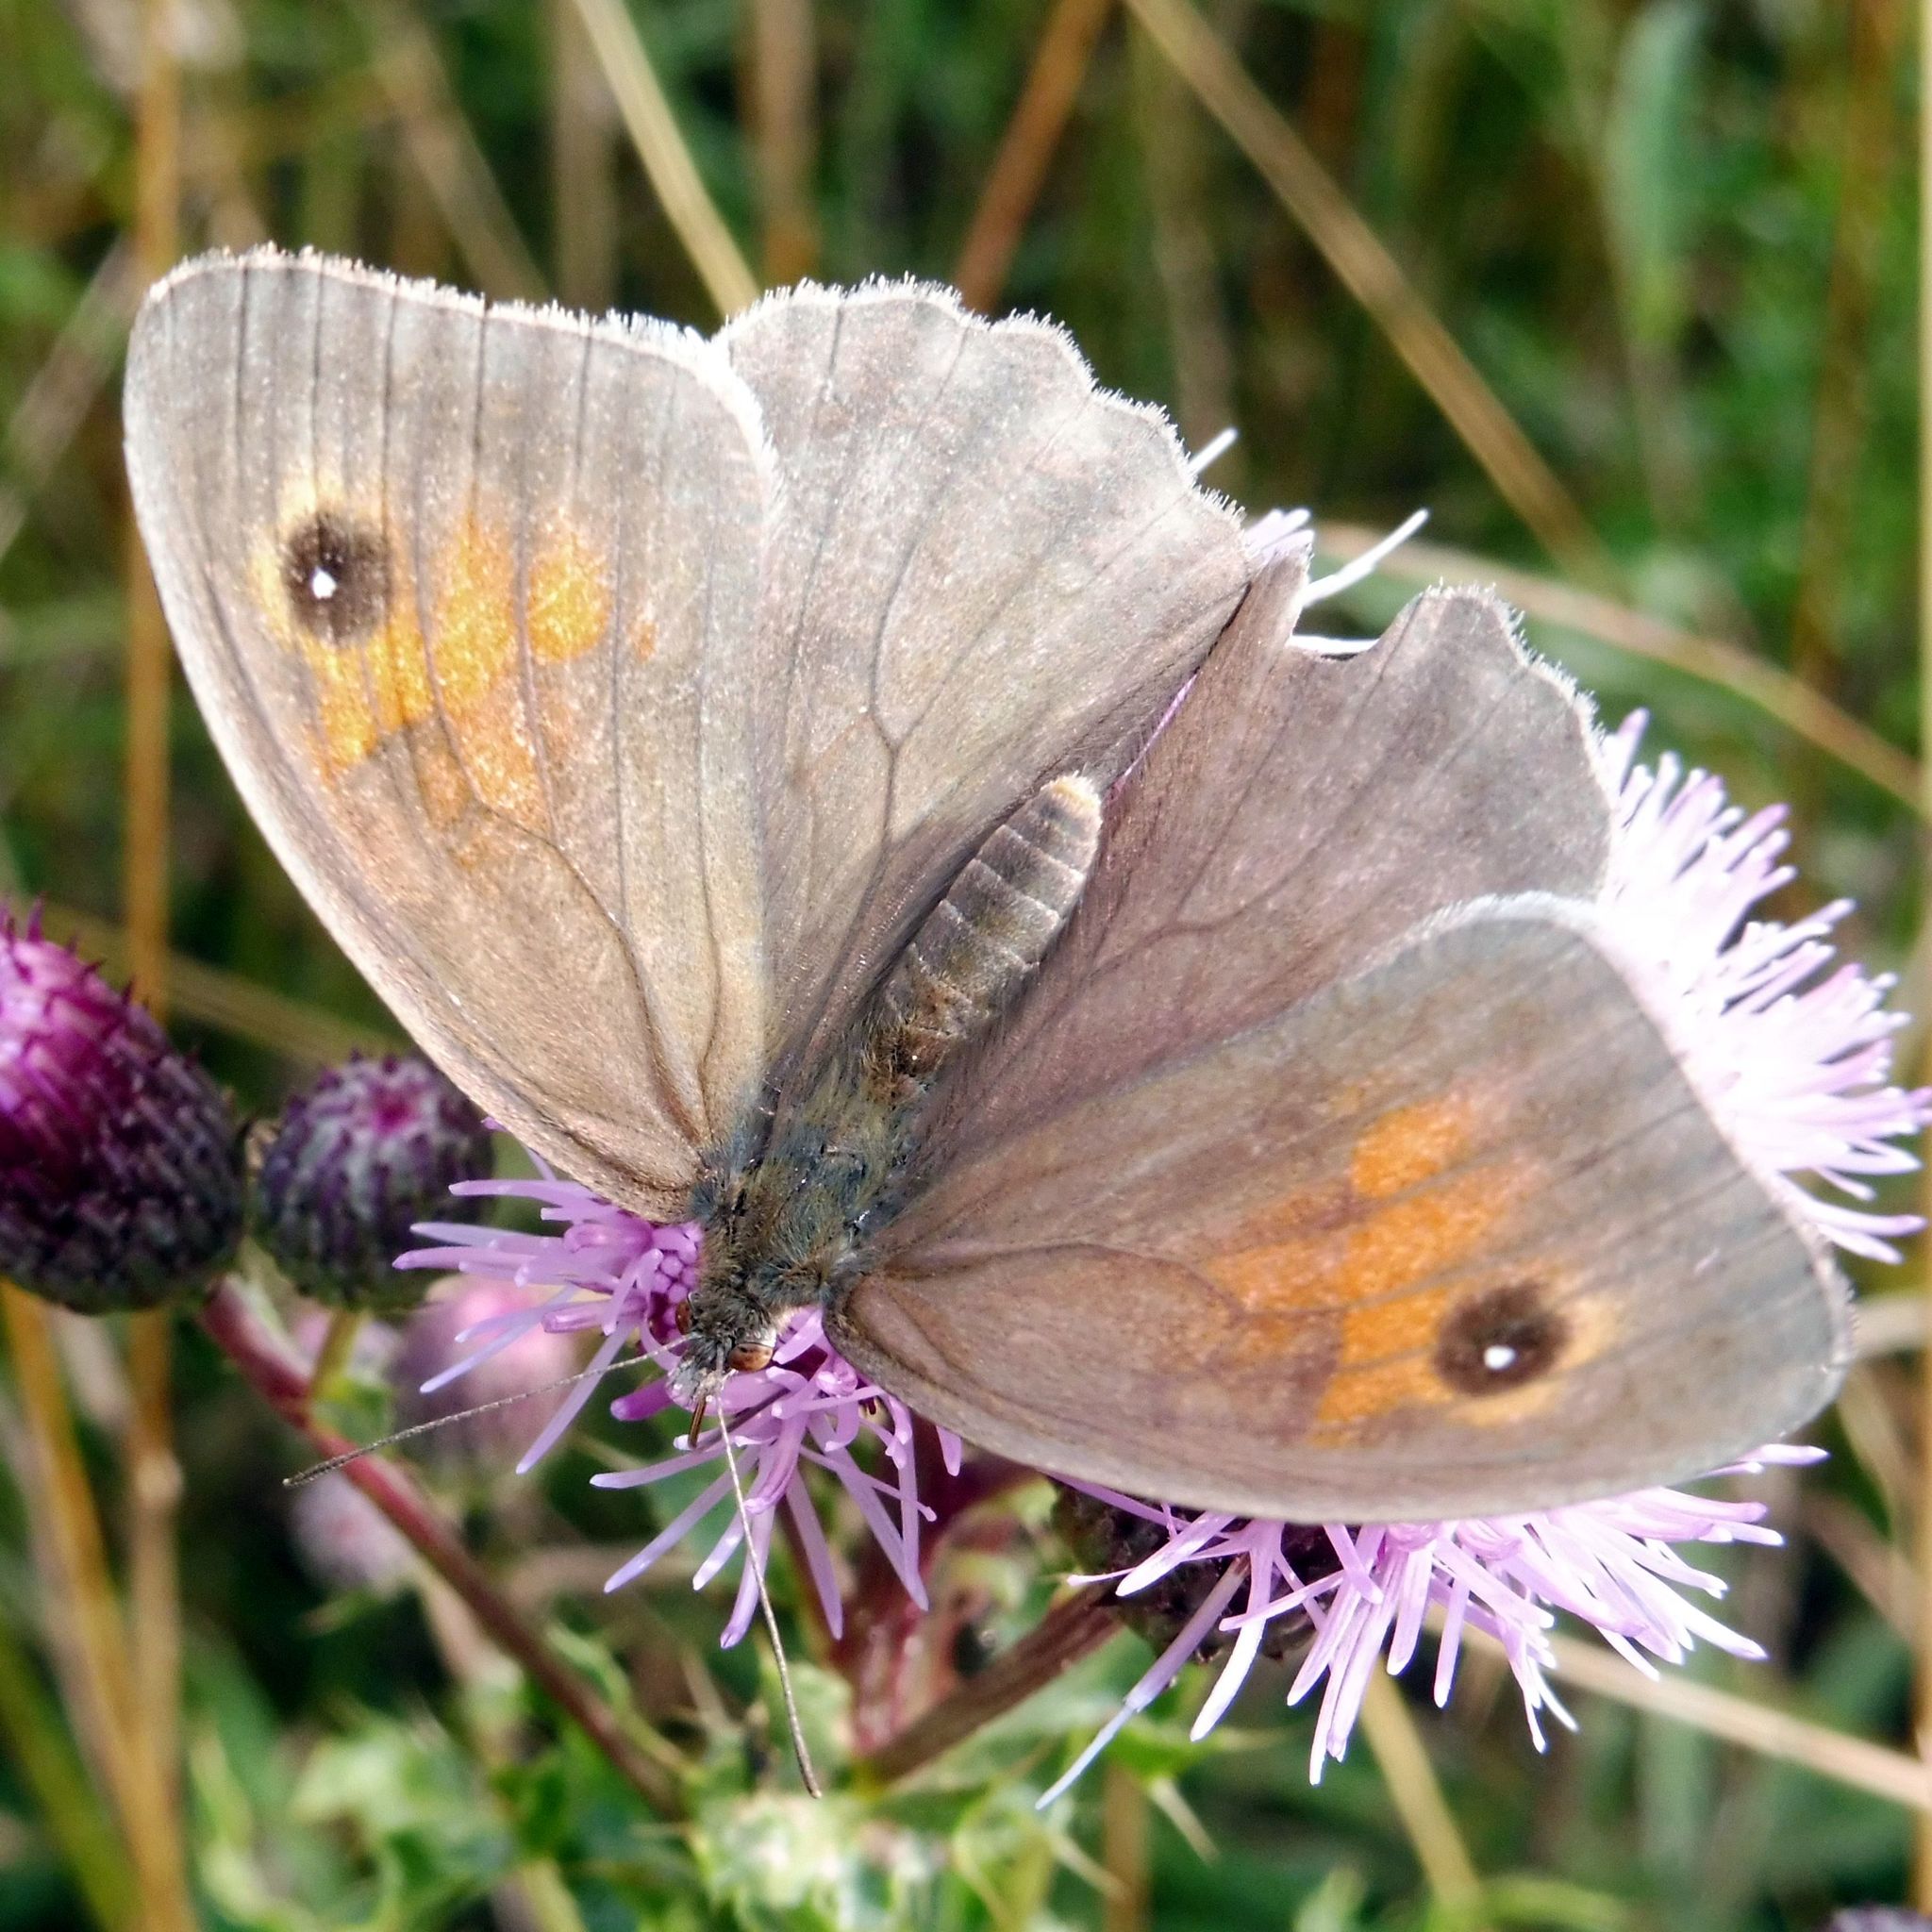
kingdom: Animalia
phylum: Arthropoda
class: Insecta
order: Lepidoptera
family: Nymphalidae
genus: Maniola
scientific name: Maniola jurtina
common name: Meadow brown
